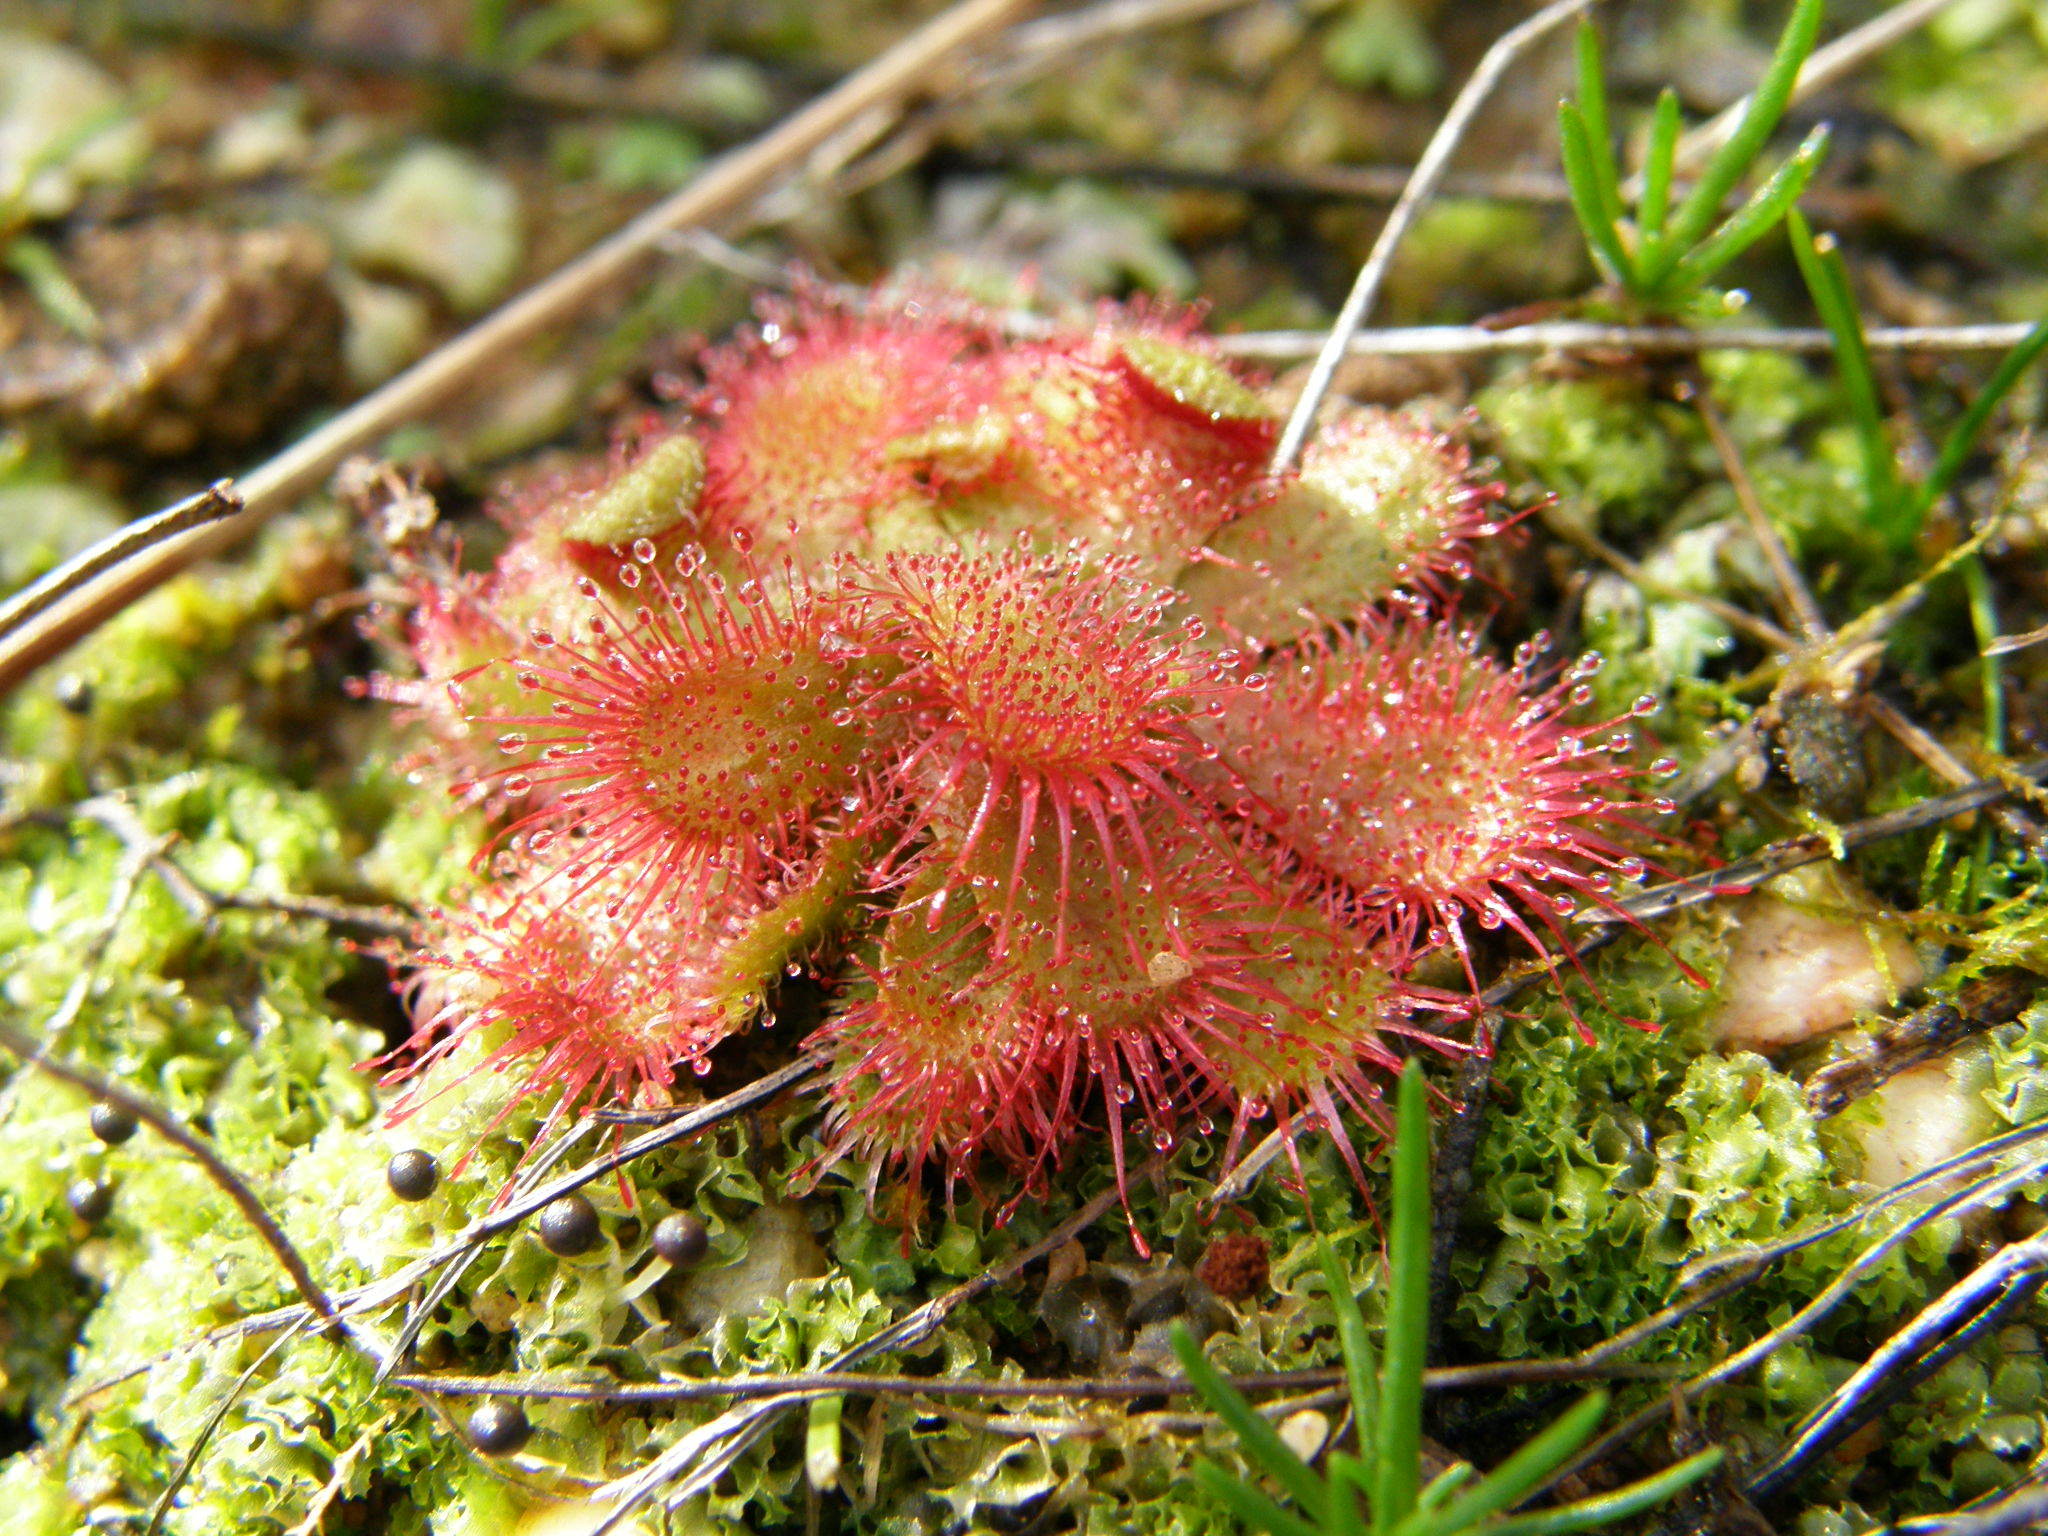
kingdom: Plantae
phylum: Tracheophyta
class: Magnoliopsida
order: Caryophyllales
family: Droseraceae
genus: Drosera
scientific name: Drosera trinervia
